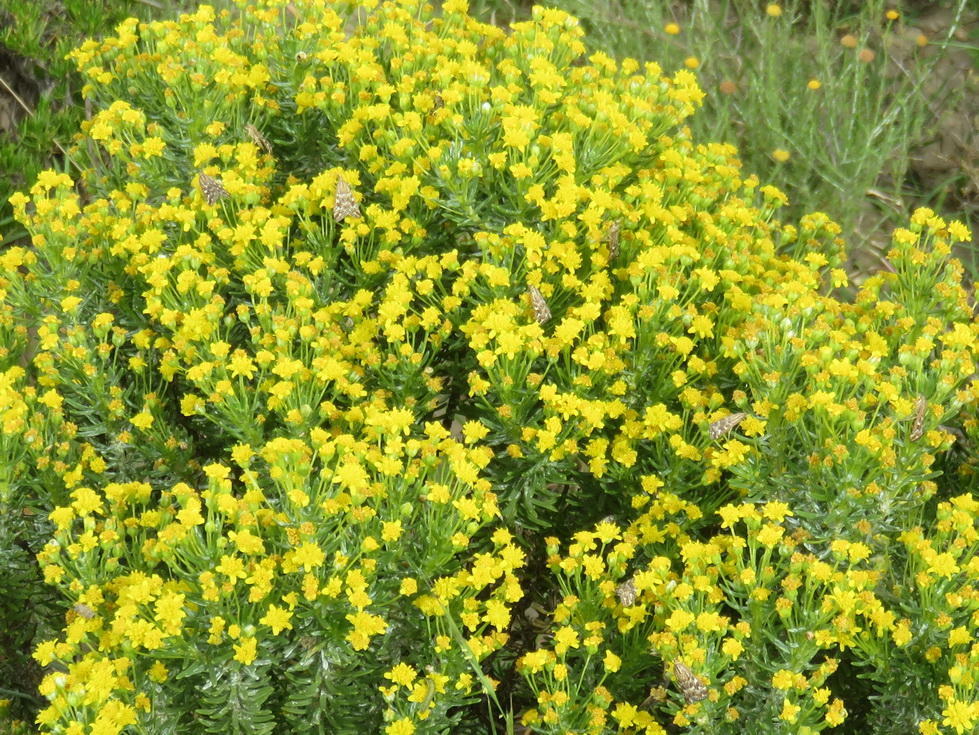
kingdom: Animalia
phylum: Arthropoda
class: Insecta
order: Lepidoptera
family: Crambidae
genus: Loxostege
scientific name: Loxostege frustalis
